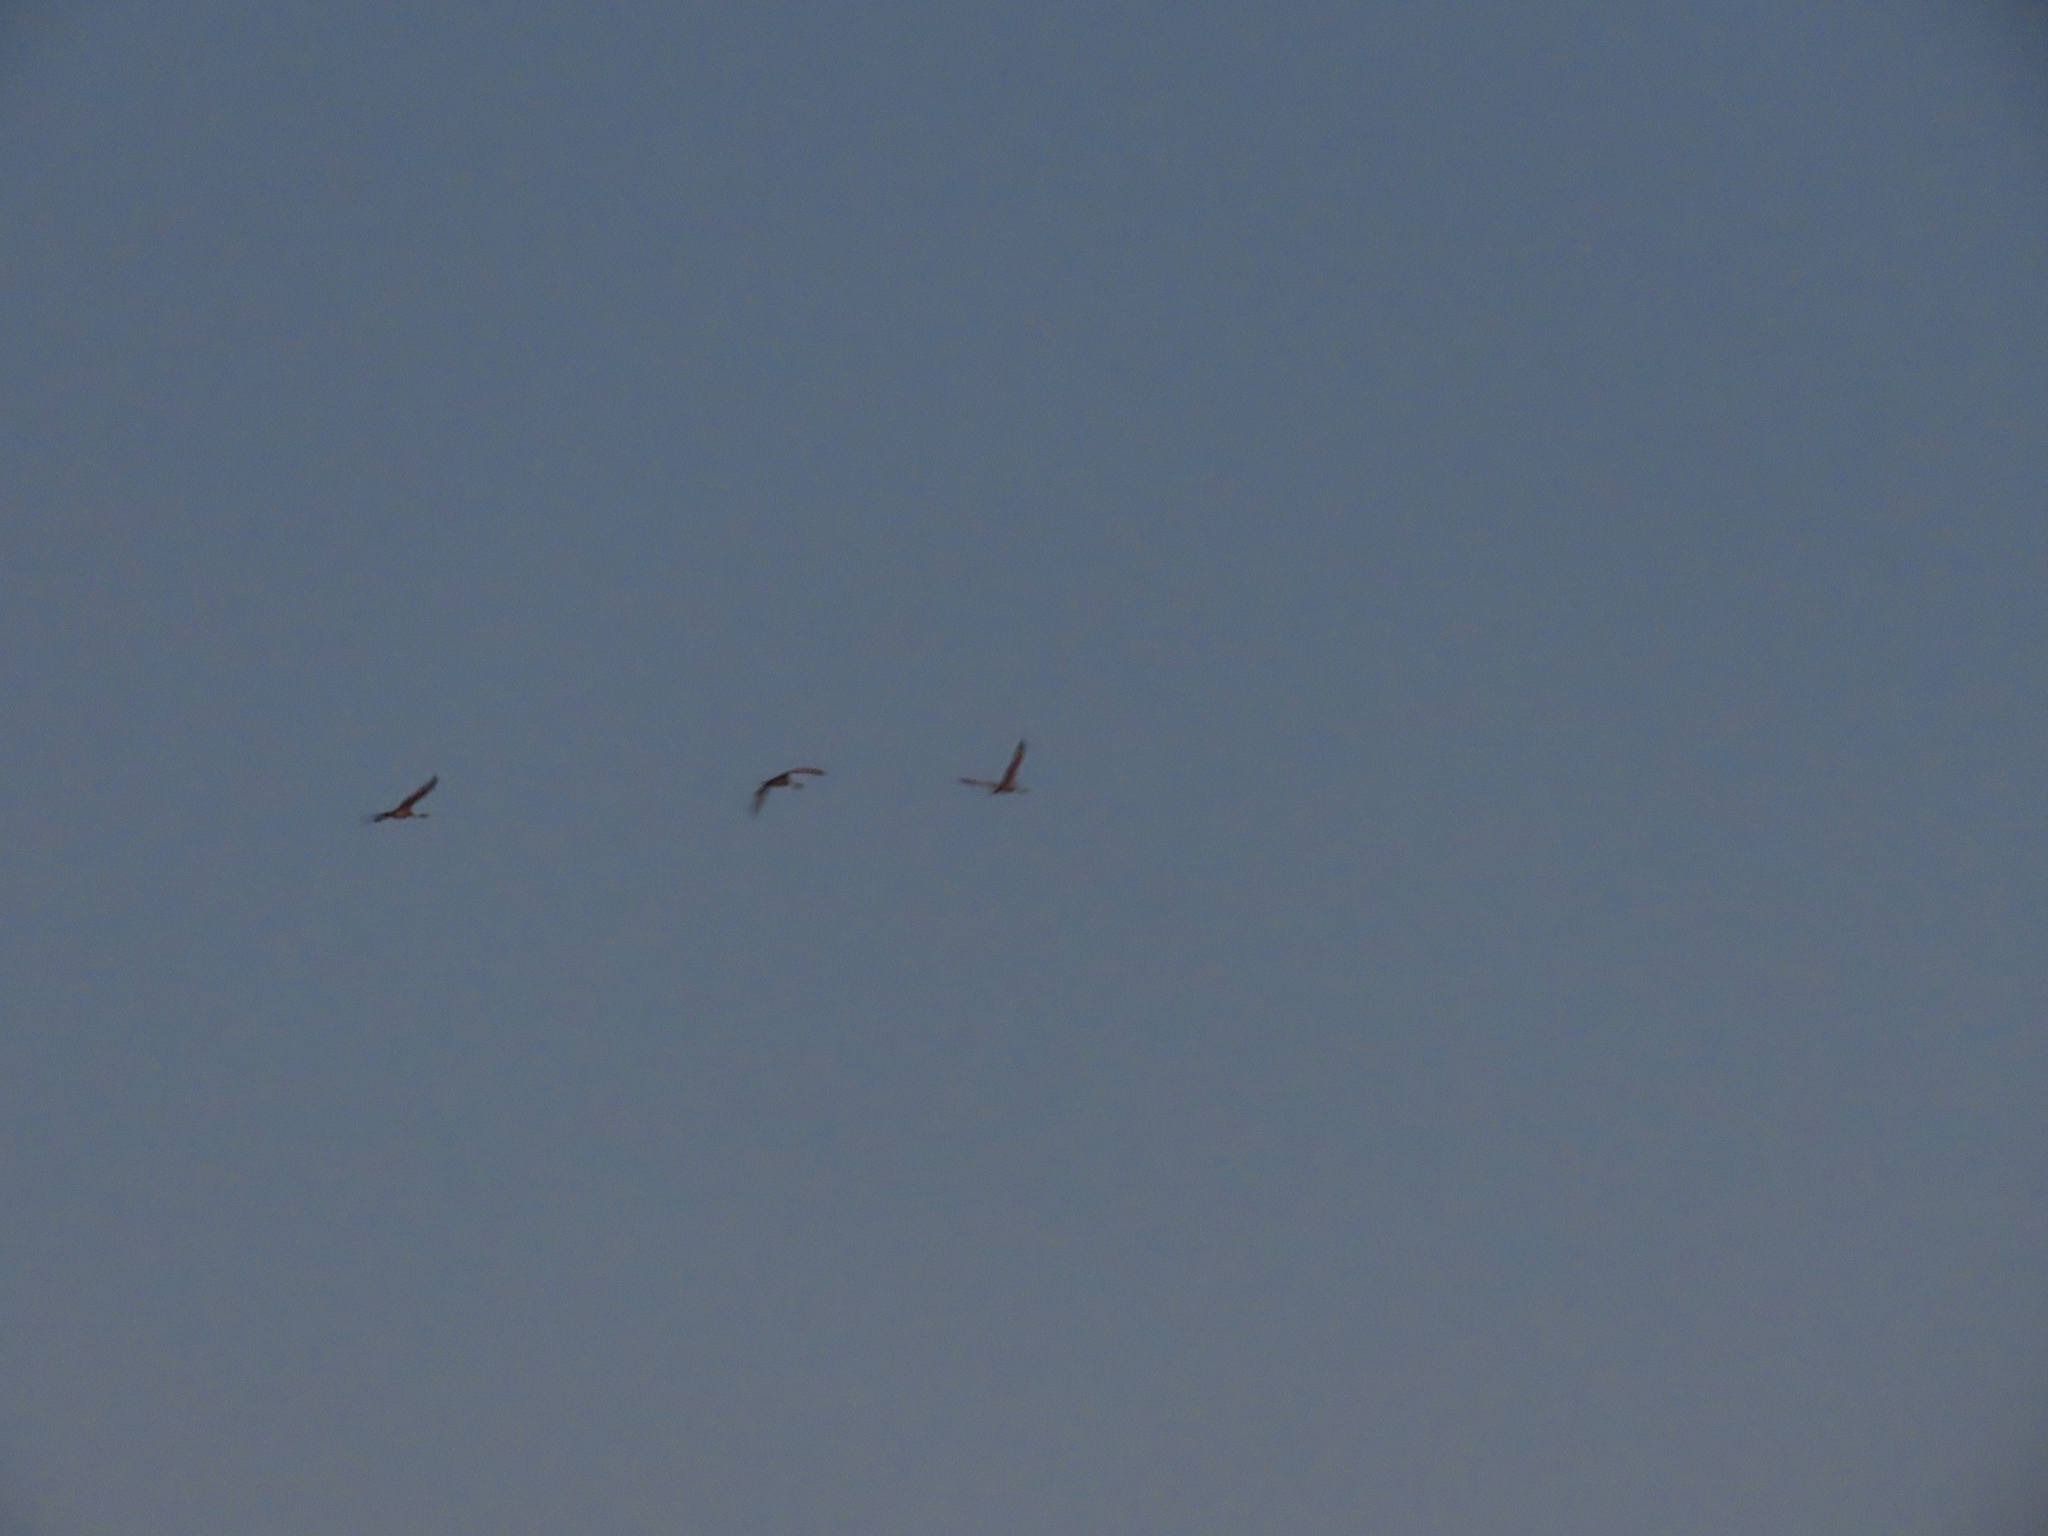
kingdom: Animalia
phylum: Chordata
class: Aves
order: Gruiformes
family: Gruidae
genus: Anthropoides
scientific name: Anthropoides paradiseus
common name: Blue crane
